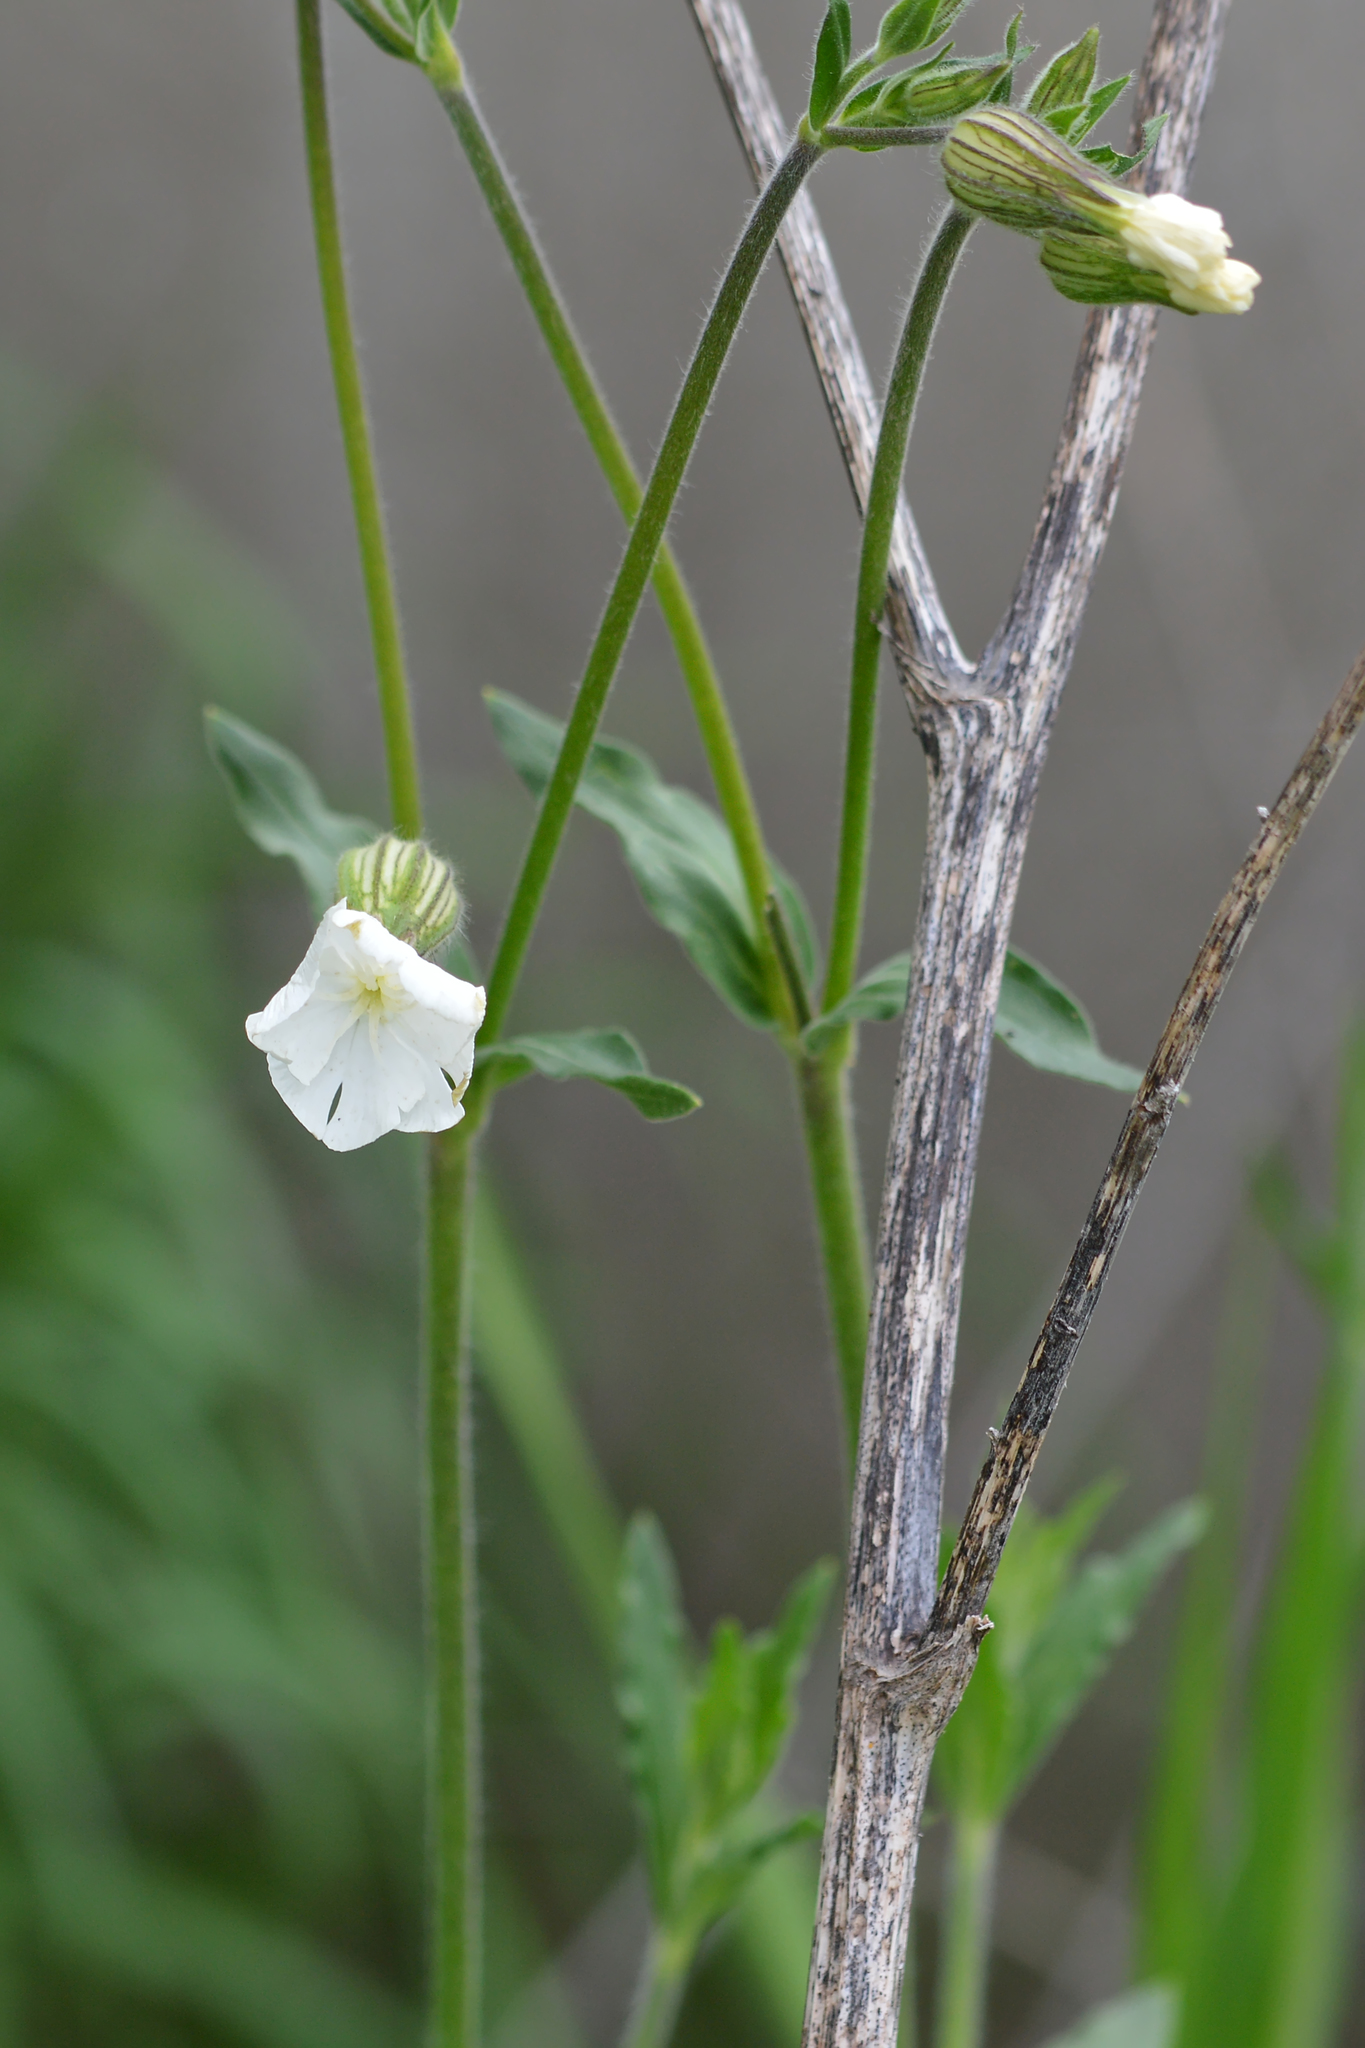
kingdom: Plantae
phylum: Tracheophyta
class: Magnoliopsida
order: Caryophyllales
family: Caryophyllaceae
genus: Silene
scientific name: Silene latifolia
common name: White campion
